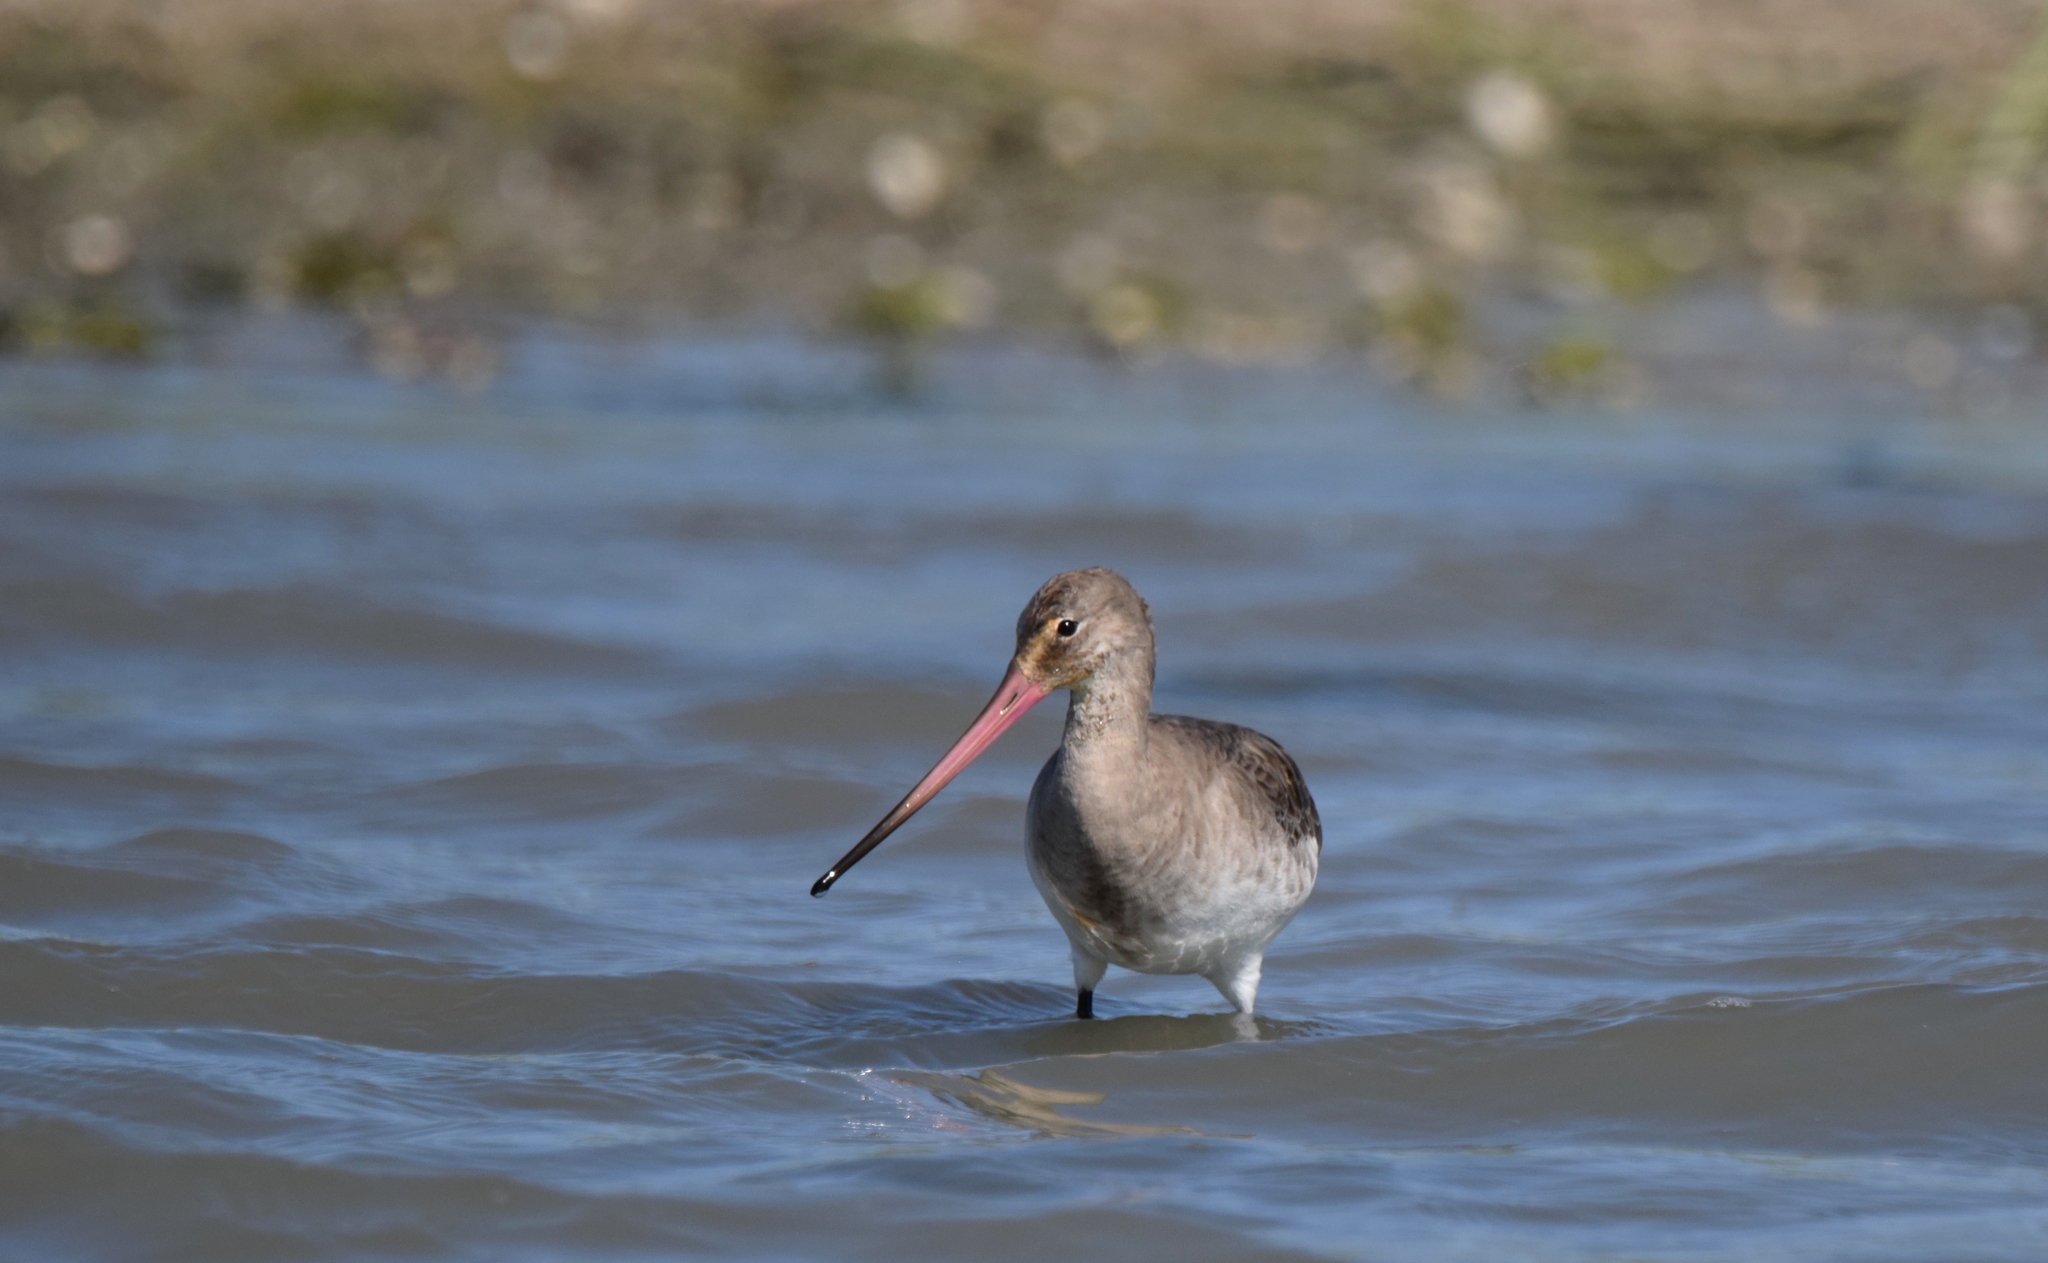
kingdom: Animalia
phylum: Chordata
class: Aves
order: Charadriiformes
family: Scolopacidae
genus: Limosa
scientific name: Limosa limosa
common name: Black-tailed godwit
